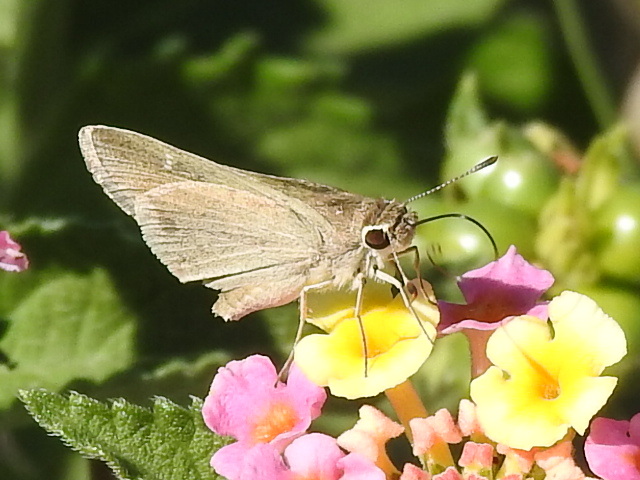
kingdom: Animalia
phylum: Arthropoda
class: Insecta
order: Lepidoptera
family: Hesperiidae
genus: Lerodea
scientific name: Lerodea eufala
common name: Eufala skipper
